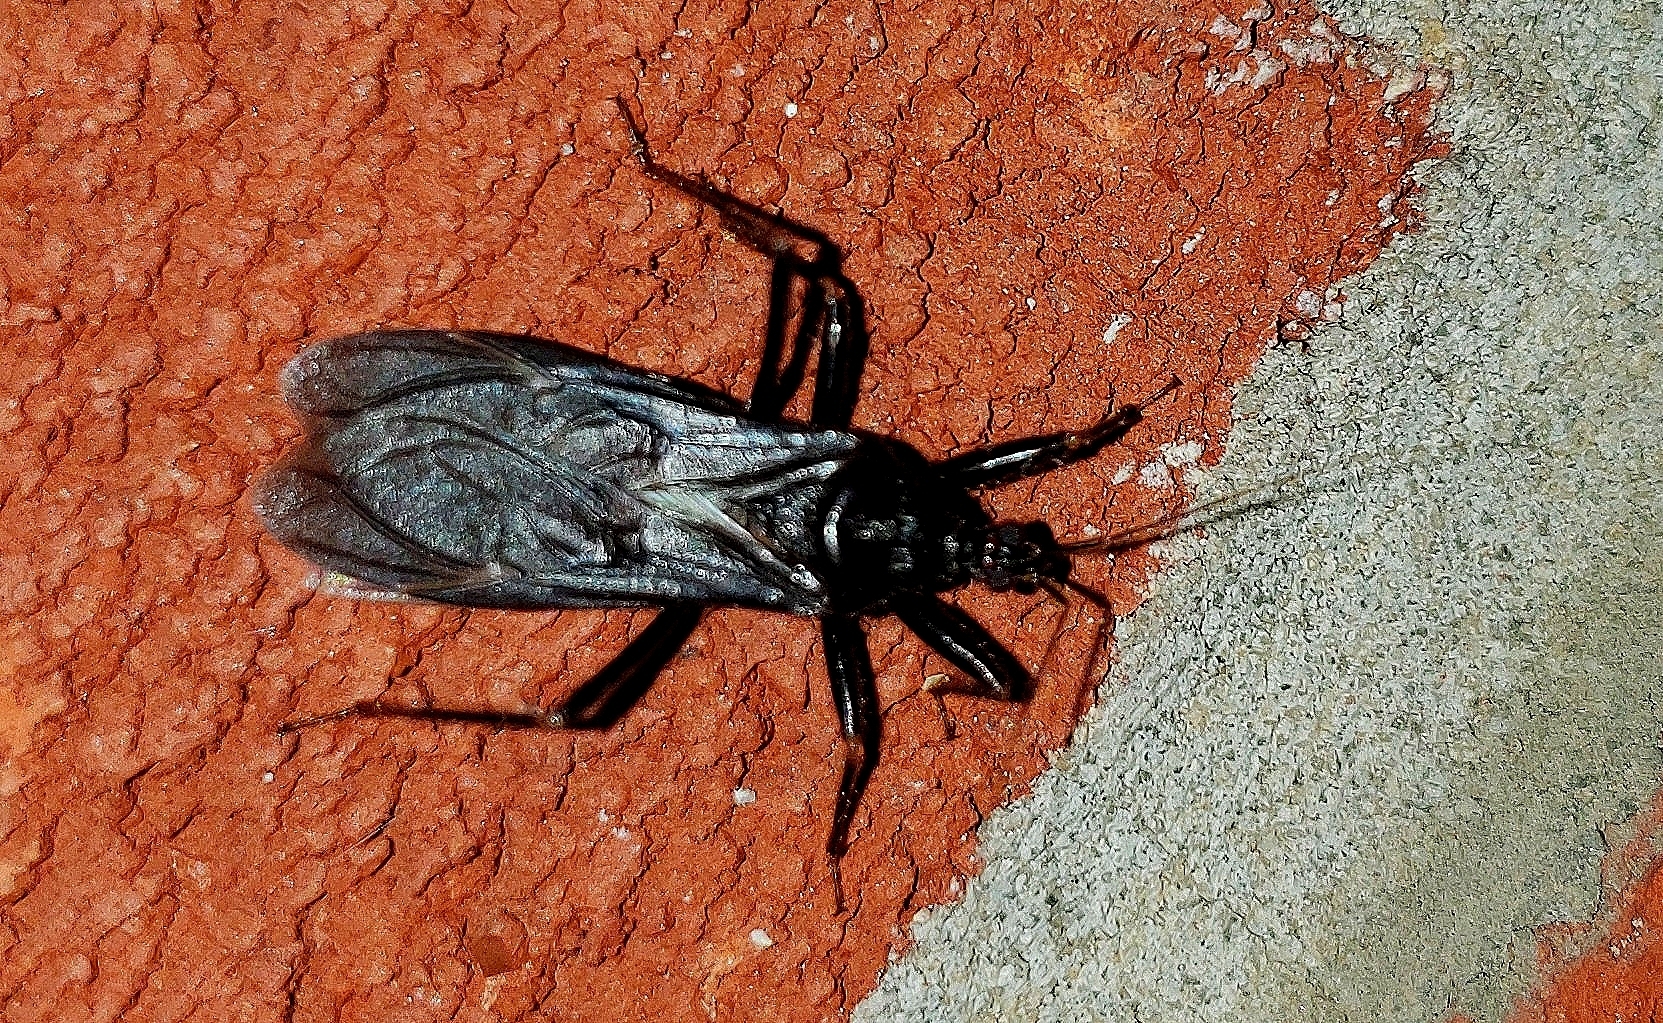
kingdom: Animalia
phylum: Arthropoda
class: Insecta
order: Hemiptera
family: Reduviidae
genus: Reduvius
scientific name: Reduvius personatus
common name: Masked hunter
